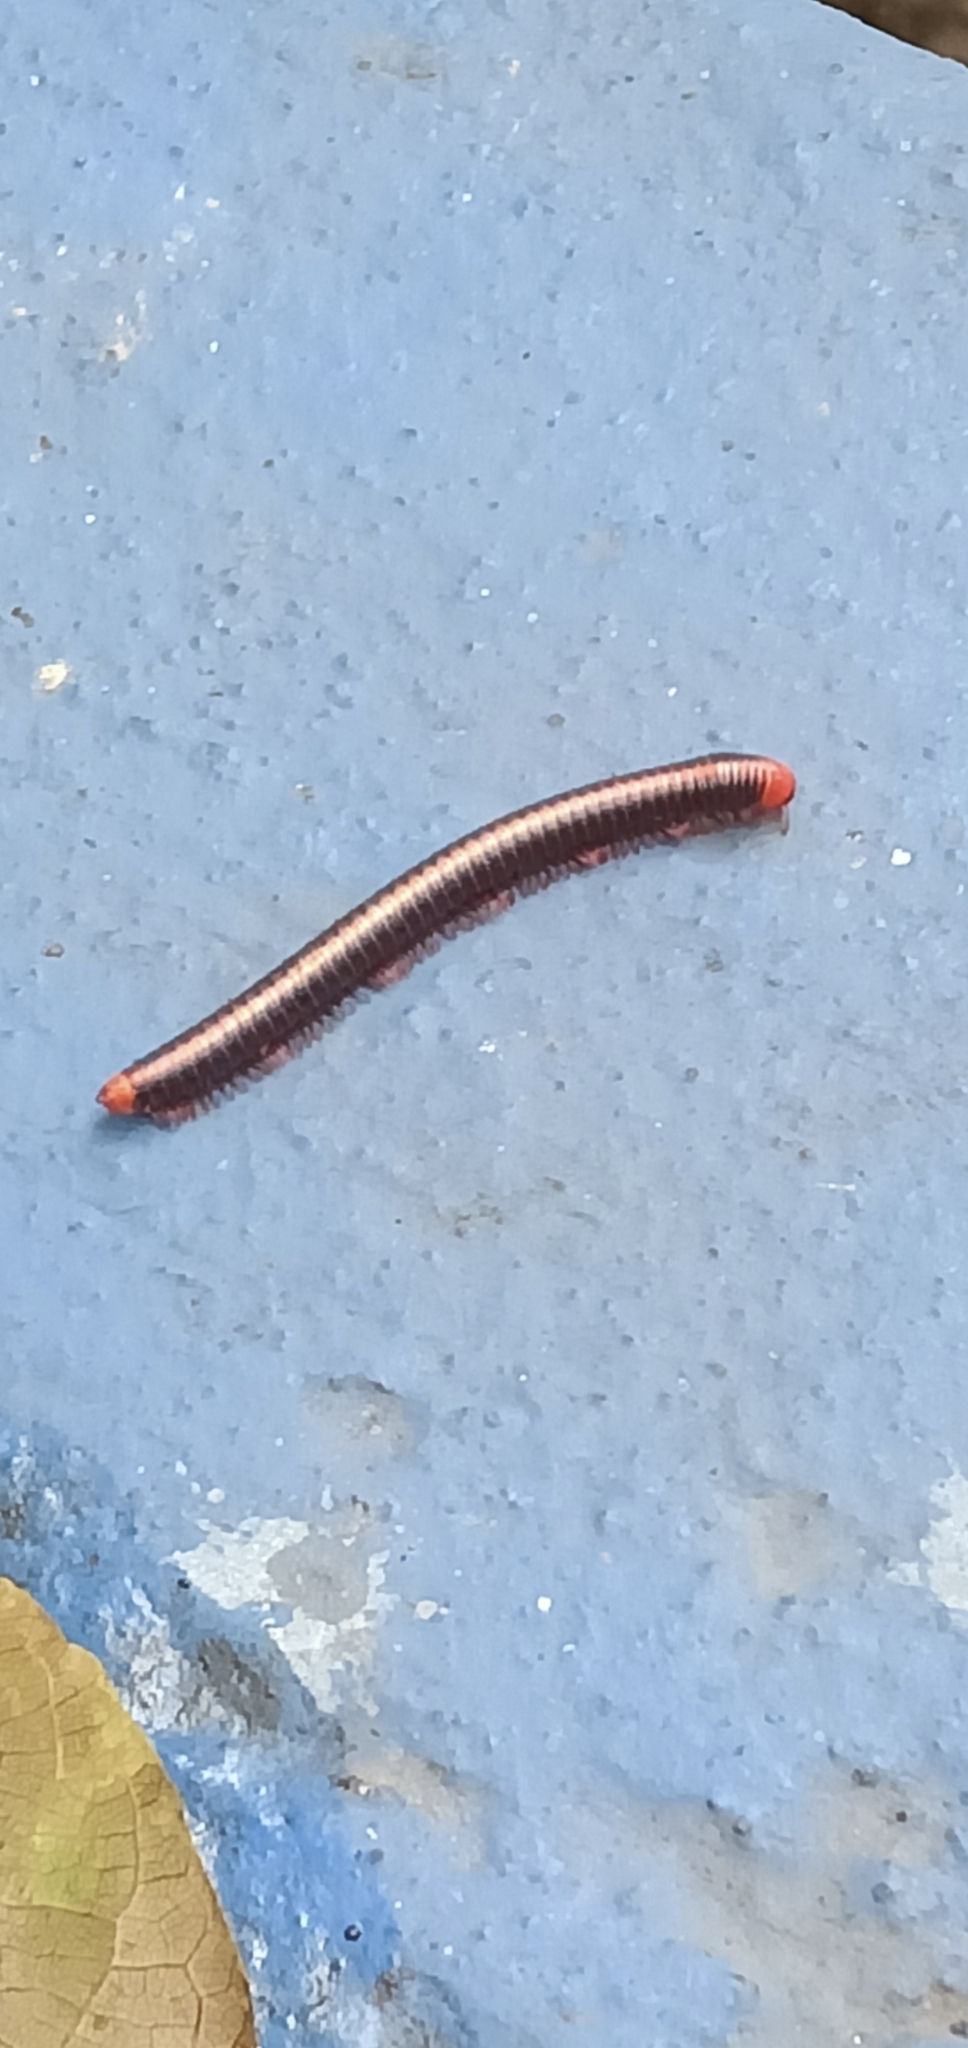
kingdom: Animalia
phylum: Arthropoda
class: Diplopoda
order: Spirobolida
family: Pachybolidae
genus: Xenobolus
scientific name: Xenobolus carnifex
